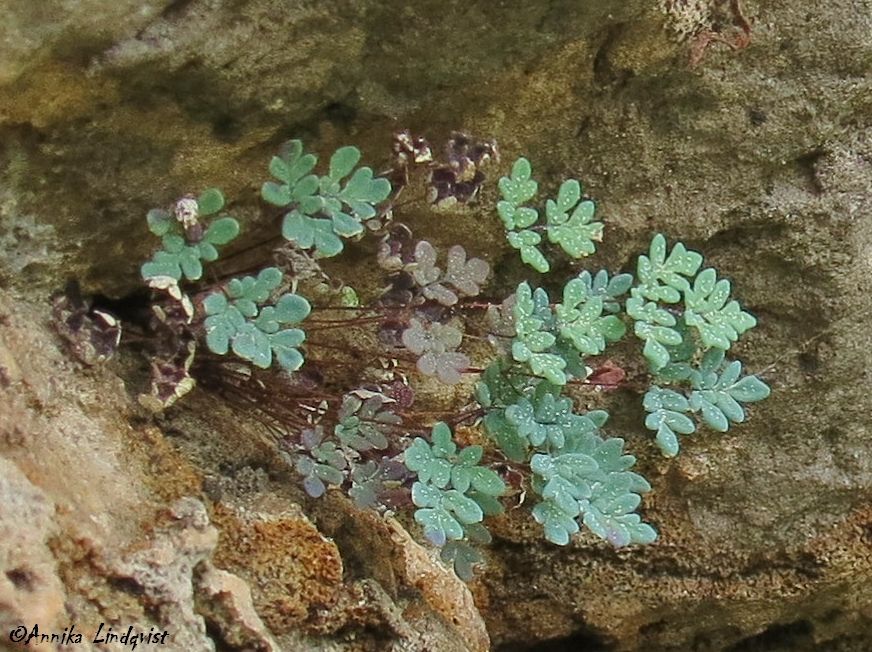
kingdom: Plantae
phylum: Tracheophyta
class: Polypodiopsida
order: Polypodiales
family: Pteridaceae
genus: Argyrochosma
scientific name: Argyrochosma dealbata
